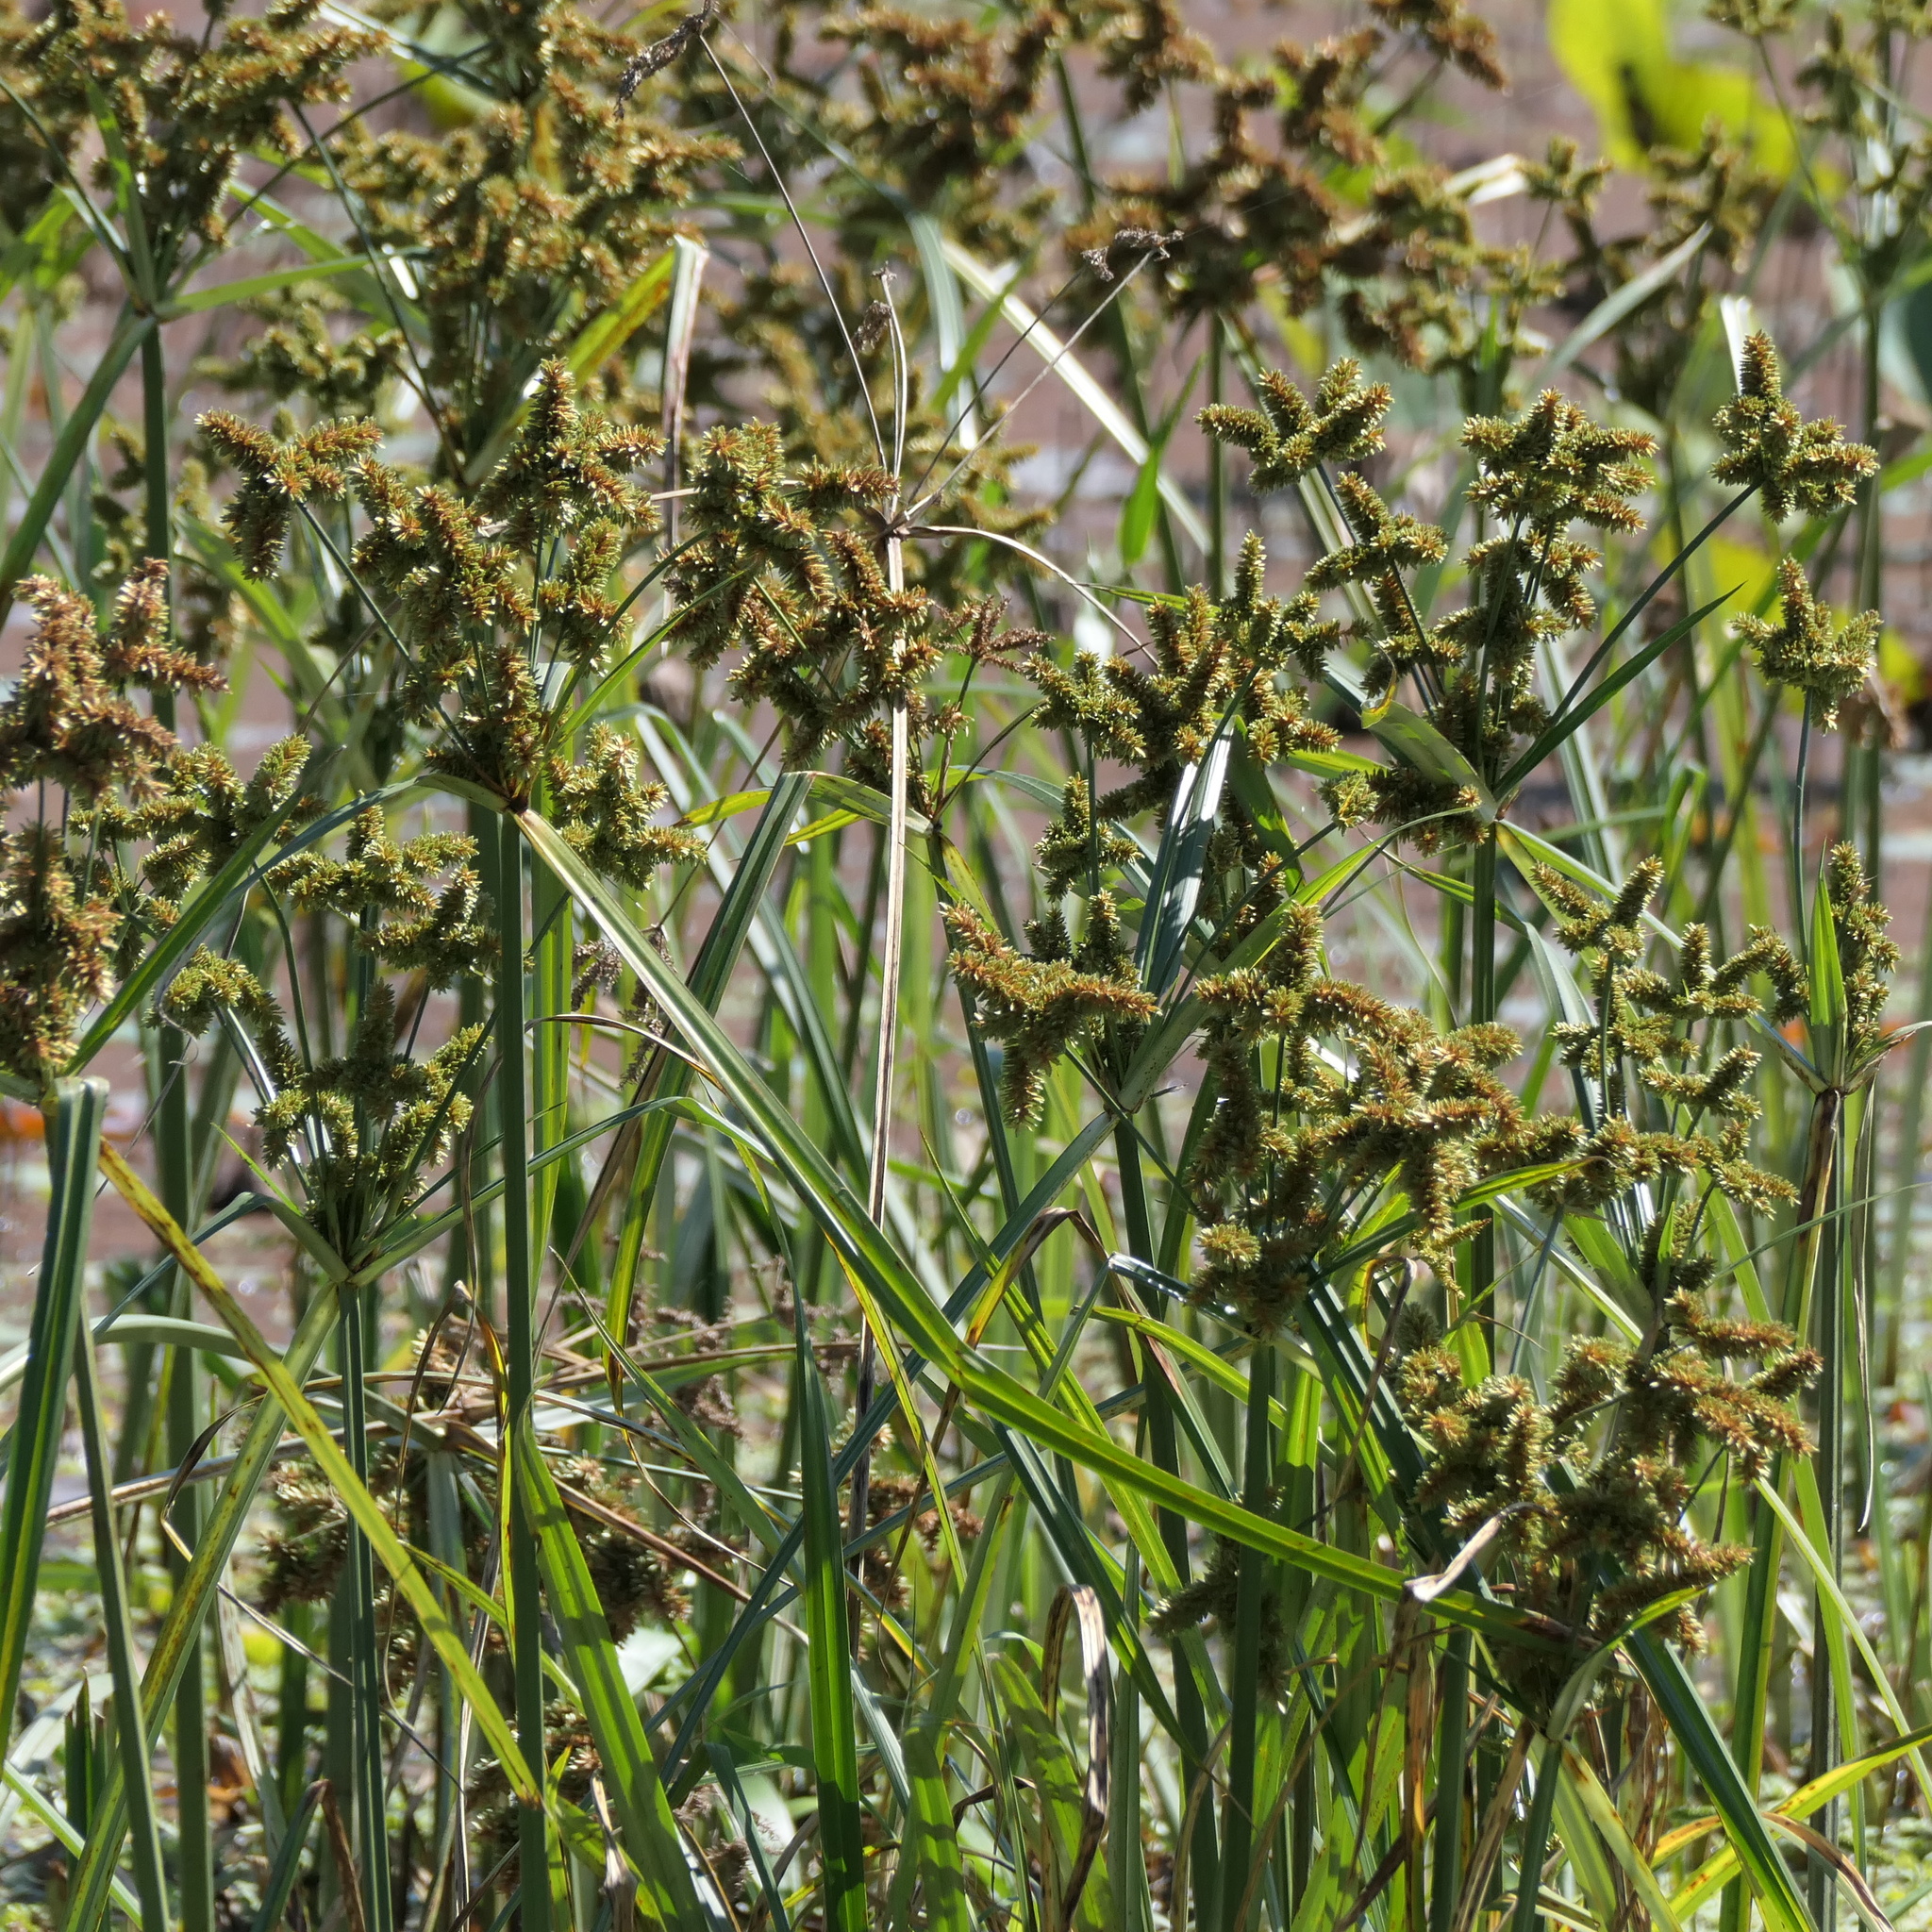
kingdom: Plantae
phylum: Tracheophyta
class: Liliopsida
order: Poales
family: Cyperaceae
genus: Cyperus
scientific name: Cyperus exaltatus
